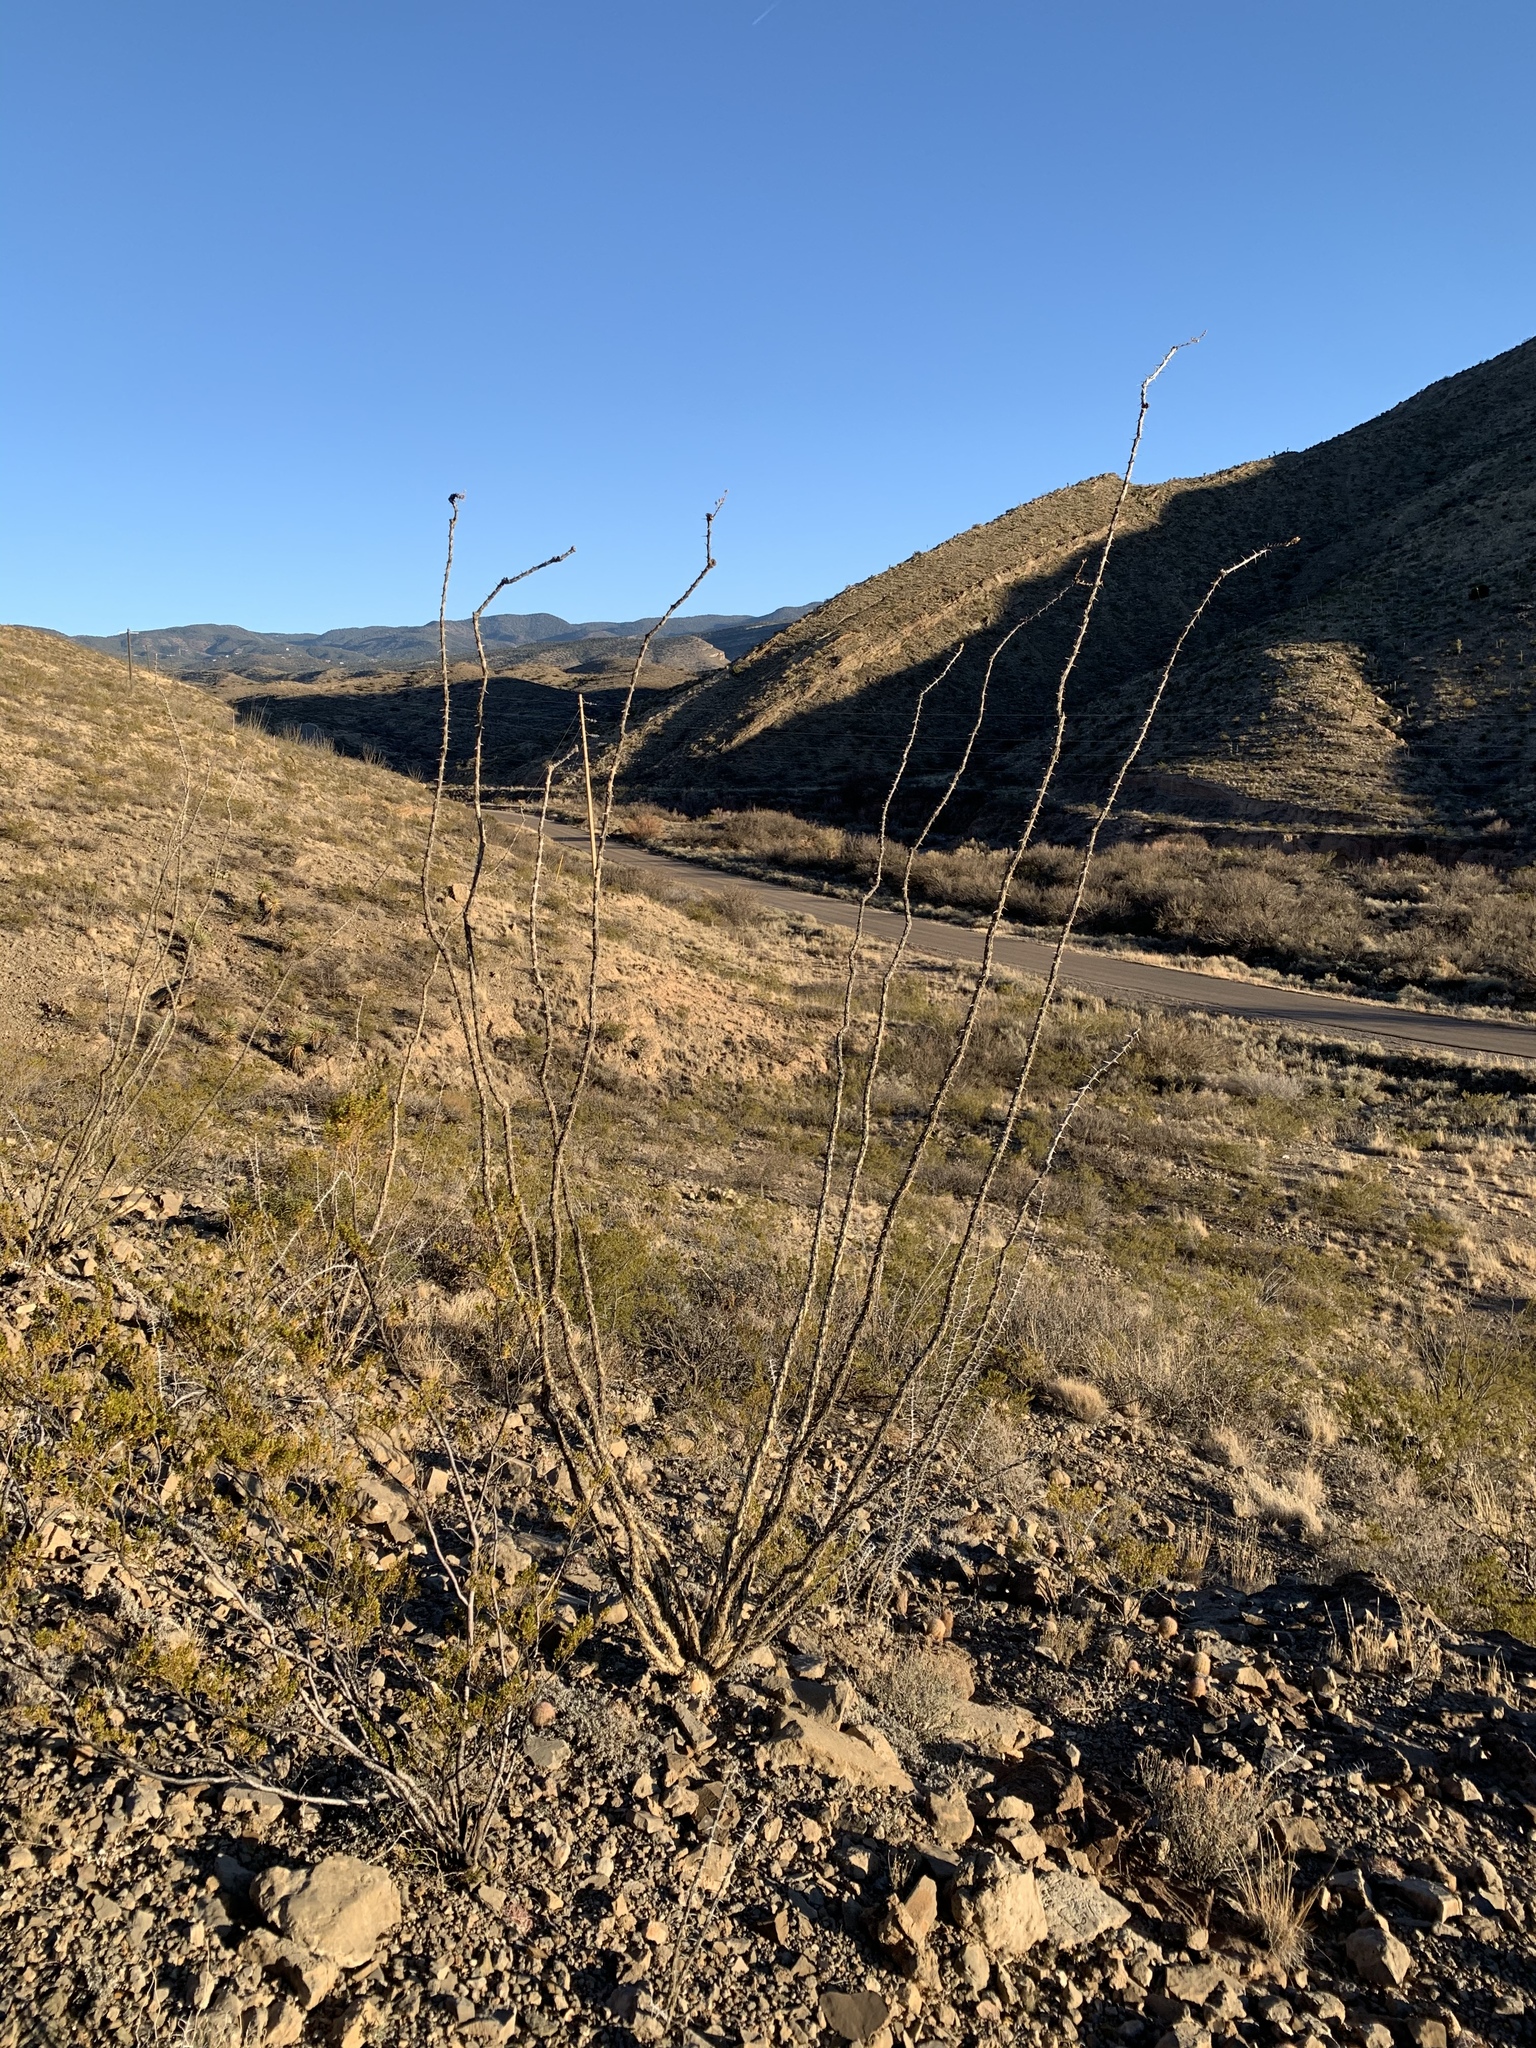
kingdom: Plantae
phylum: Tracheophyta
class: Magnoliopsida
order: Ericales
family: Fouquieriaceae
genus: Fouquieria
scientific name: Fouquieria splendens
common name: Vine-cactus
